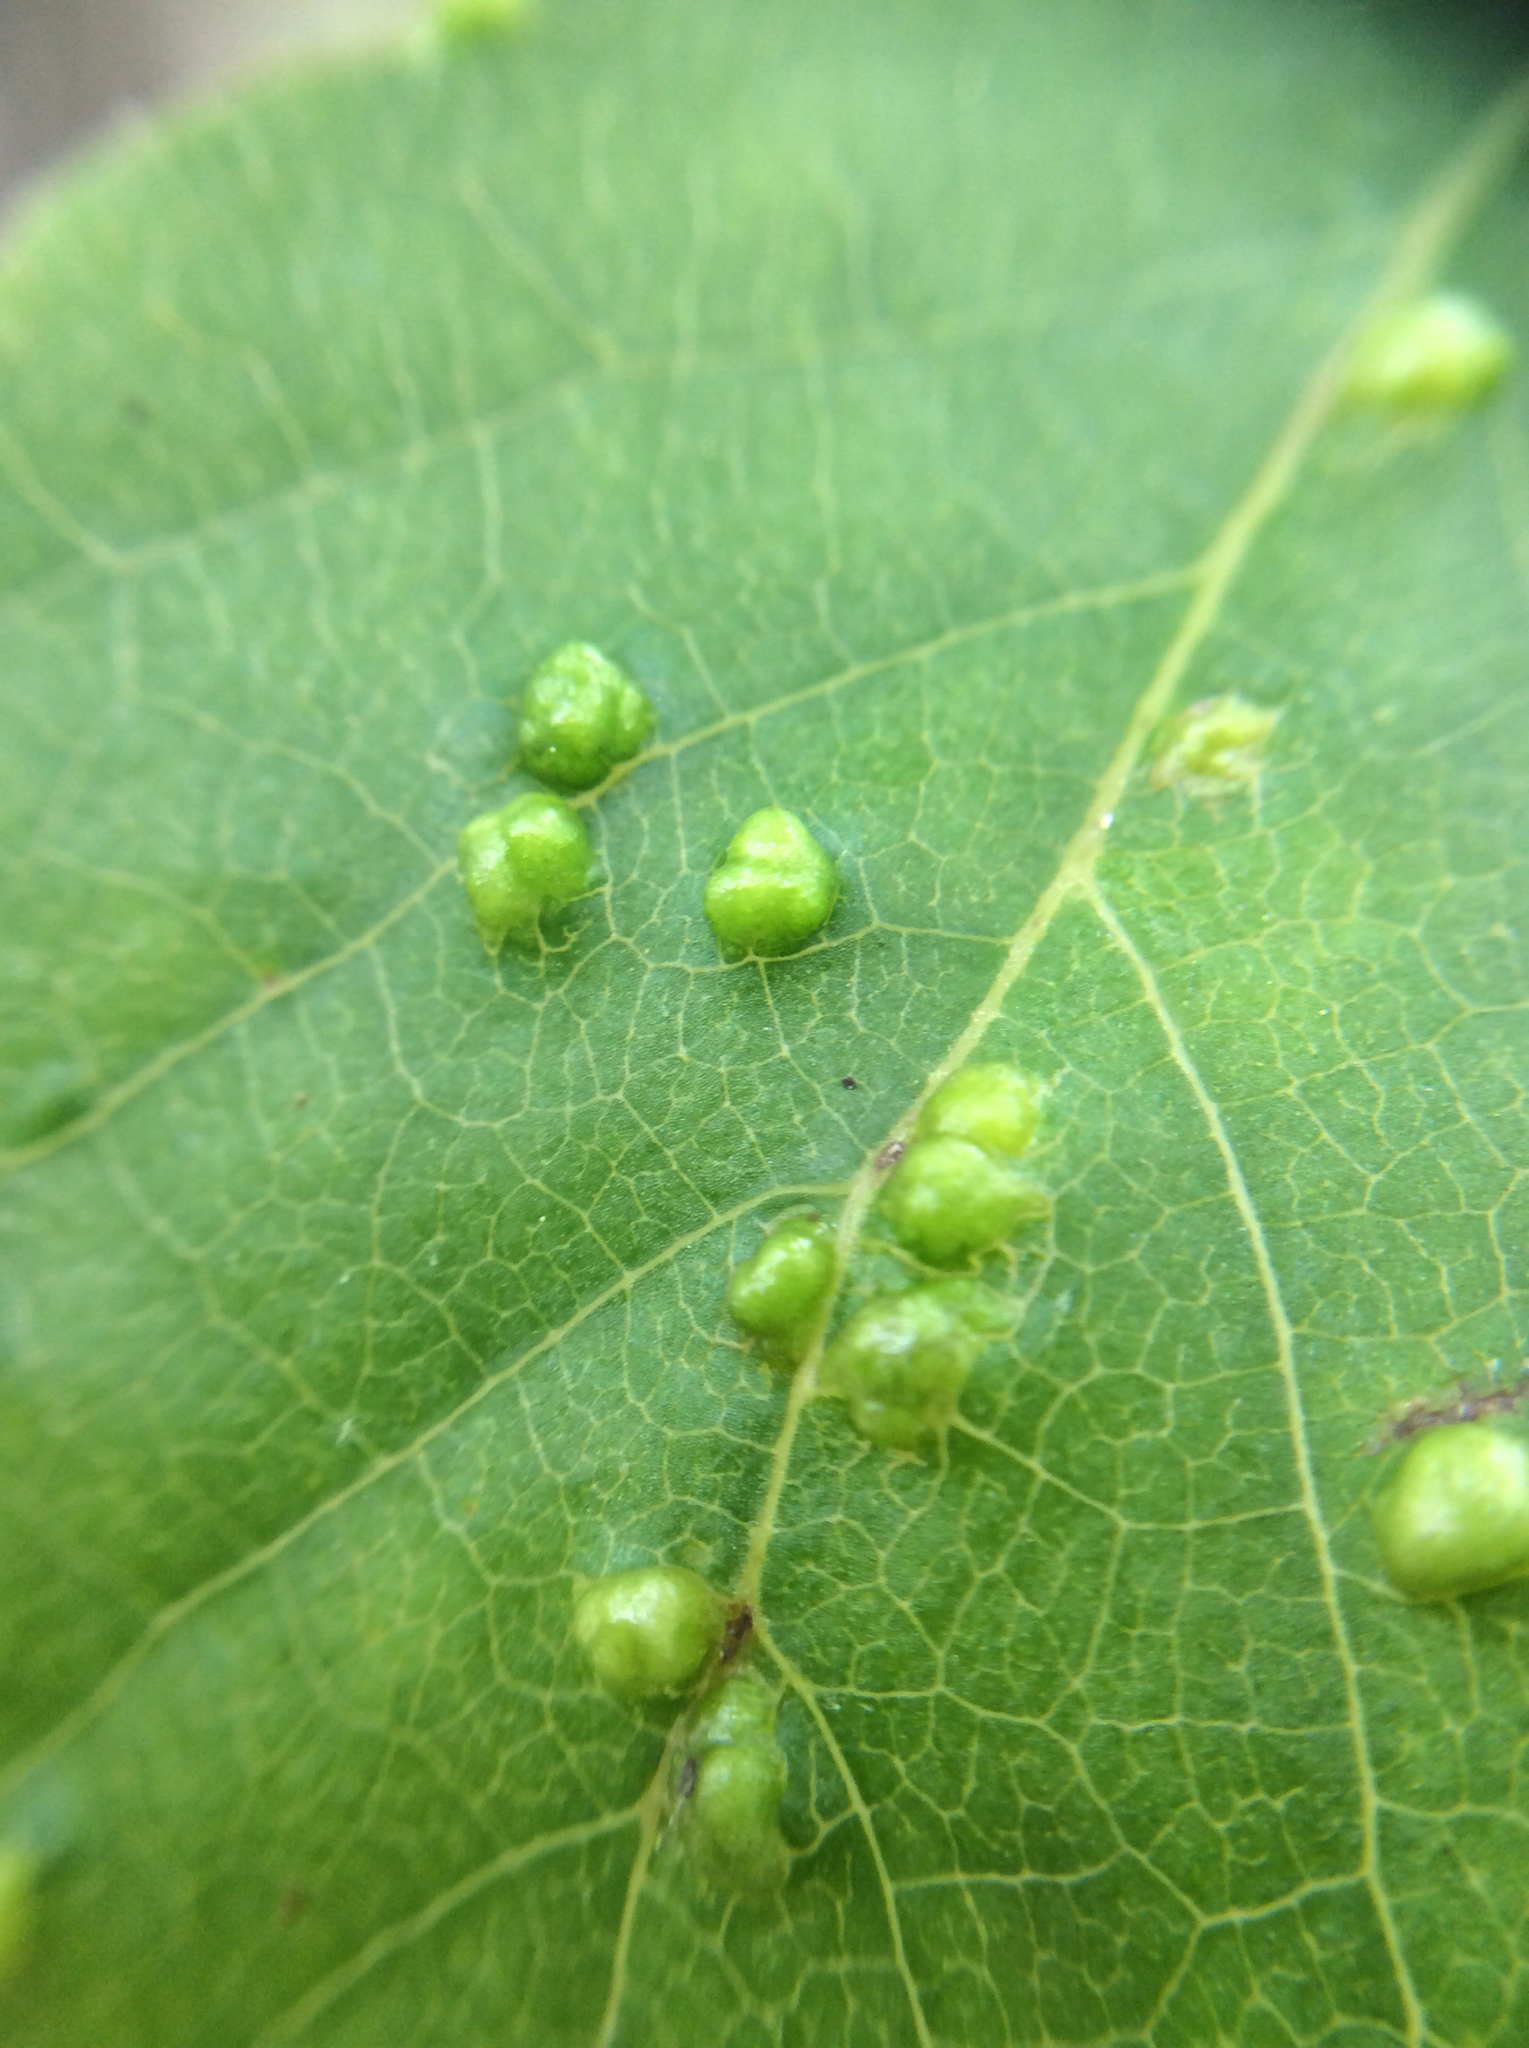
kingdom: Animalia
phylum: Arthropoda
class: Arachnida
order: Trombidiformes
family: Eriophyidae
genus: Aceria
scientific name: Aceria
